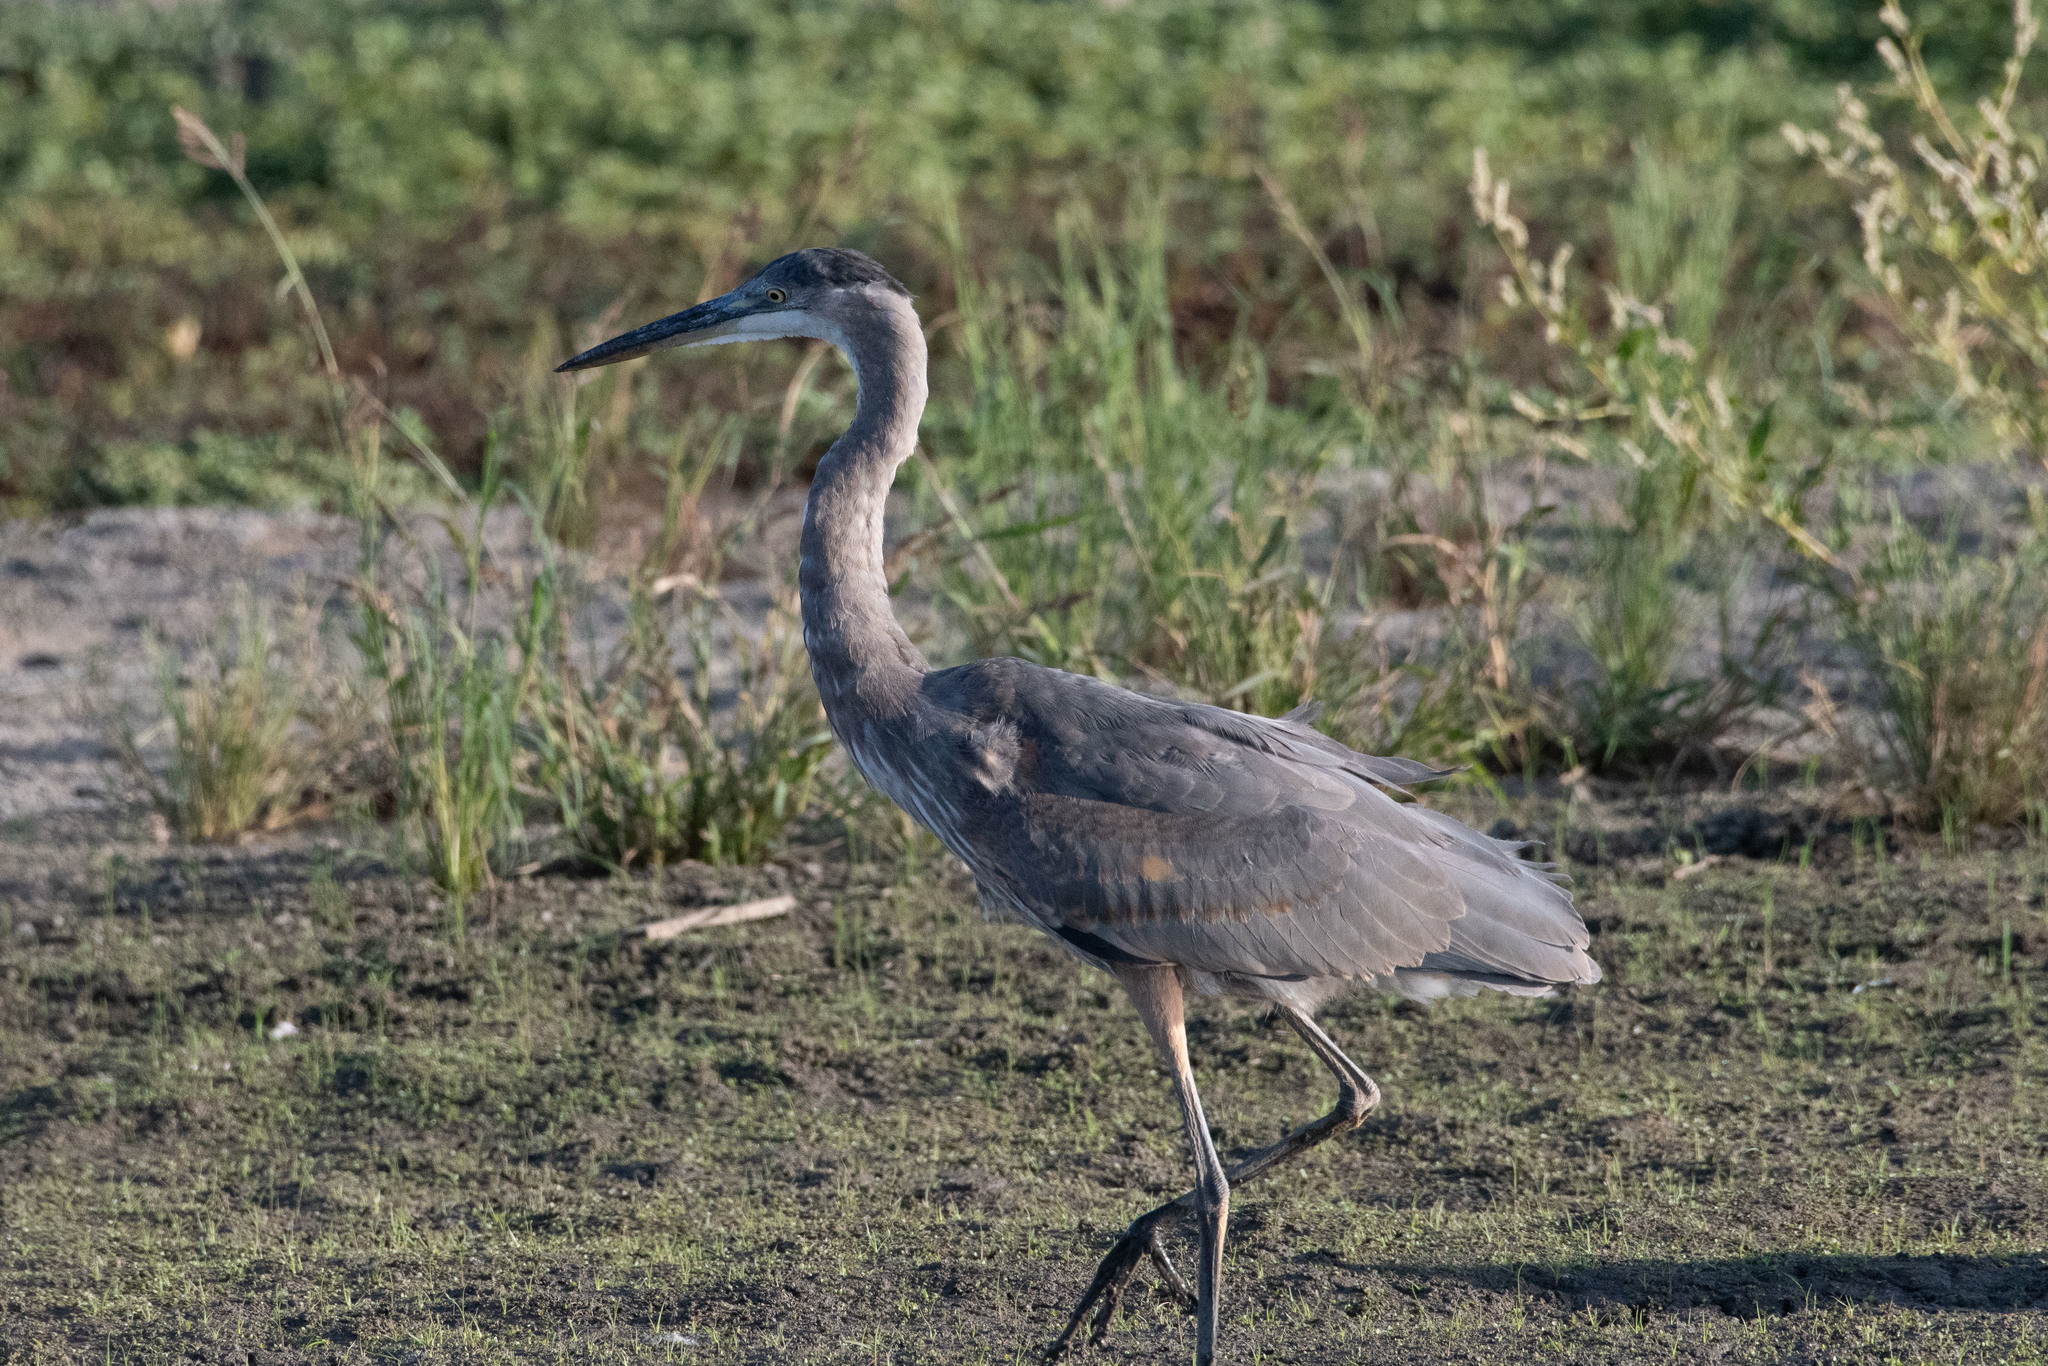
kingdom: Animalia
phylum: Chordata
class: Aves
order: Pelecaniformes
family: Ardeidae
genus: Ardea
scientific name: Ardea herodias
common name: Great blue heron
